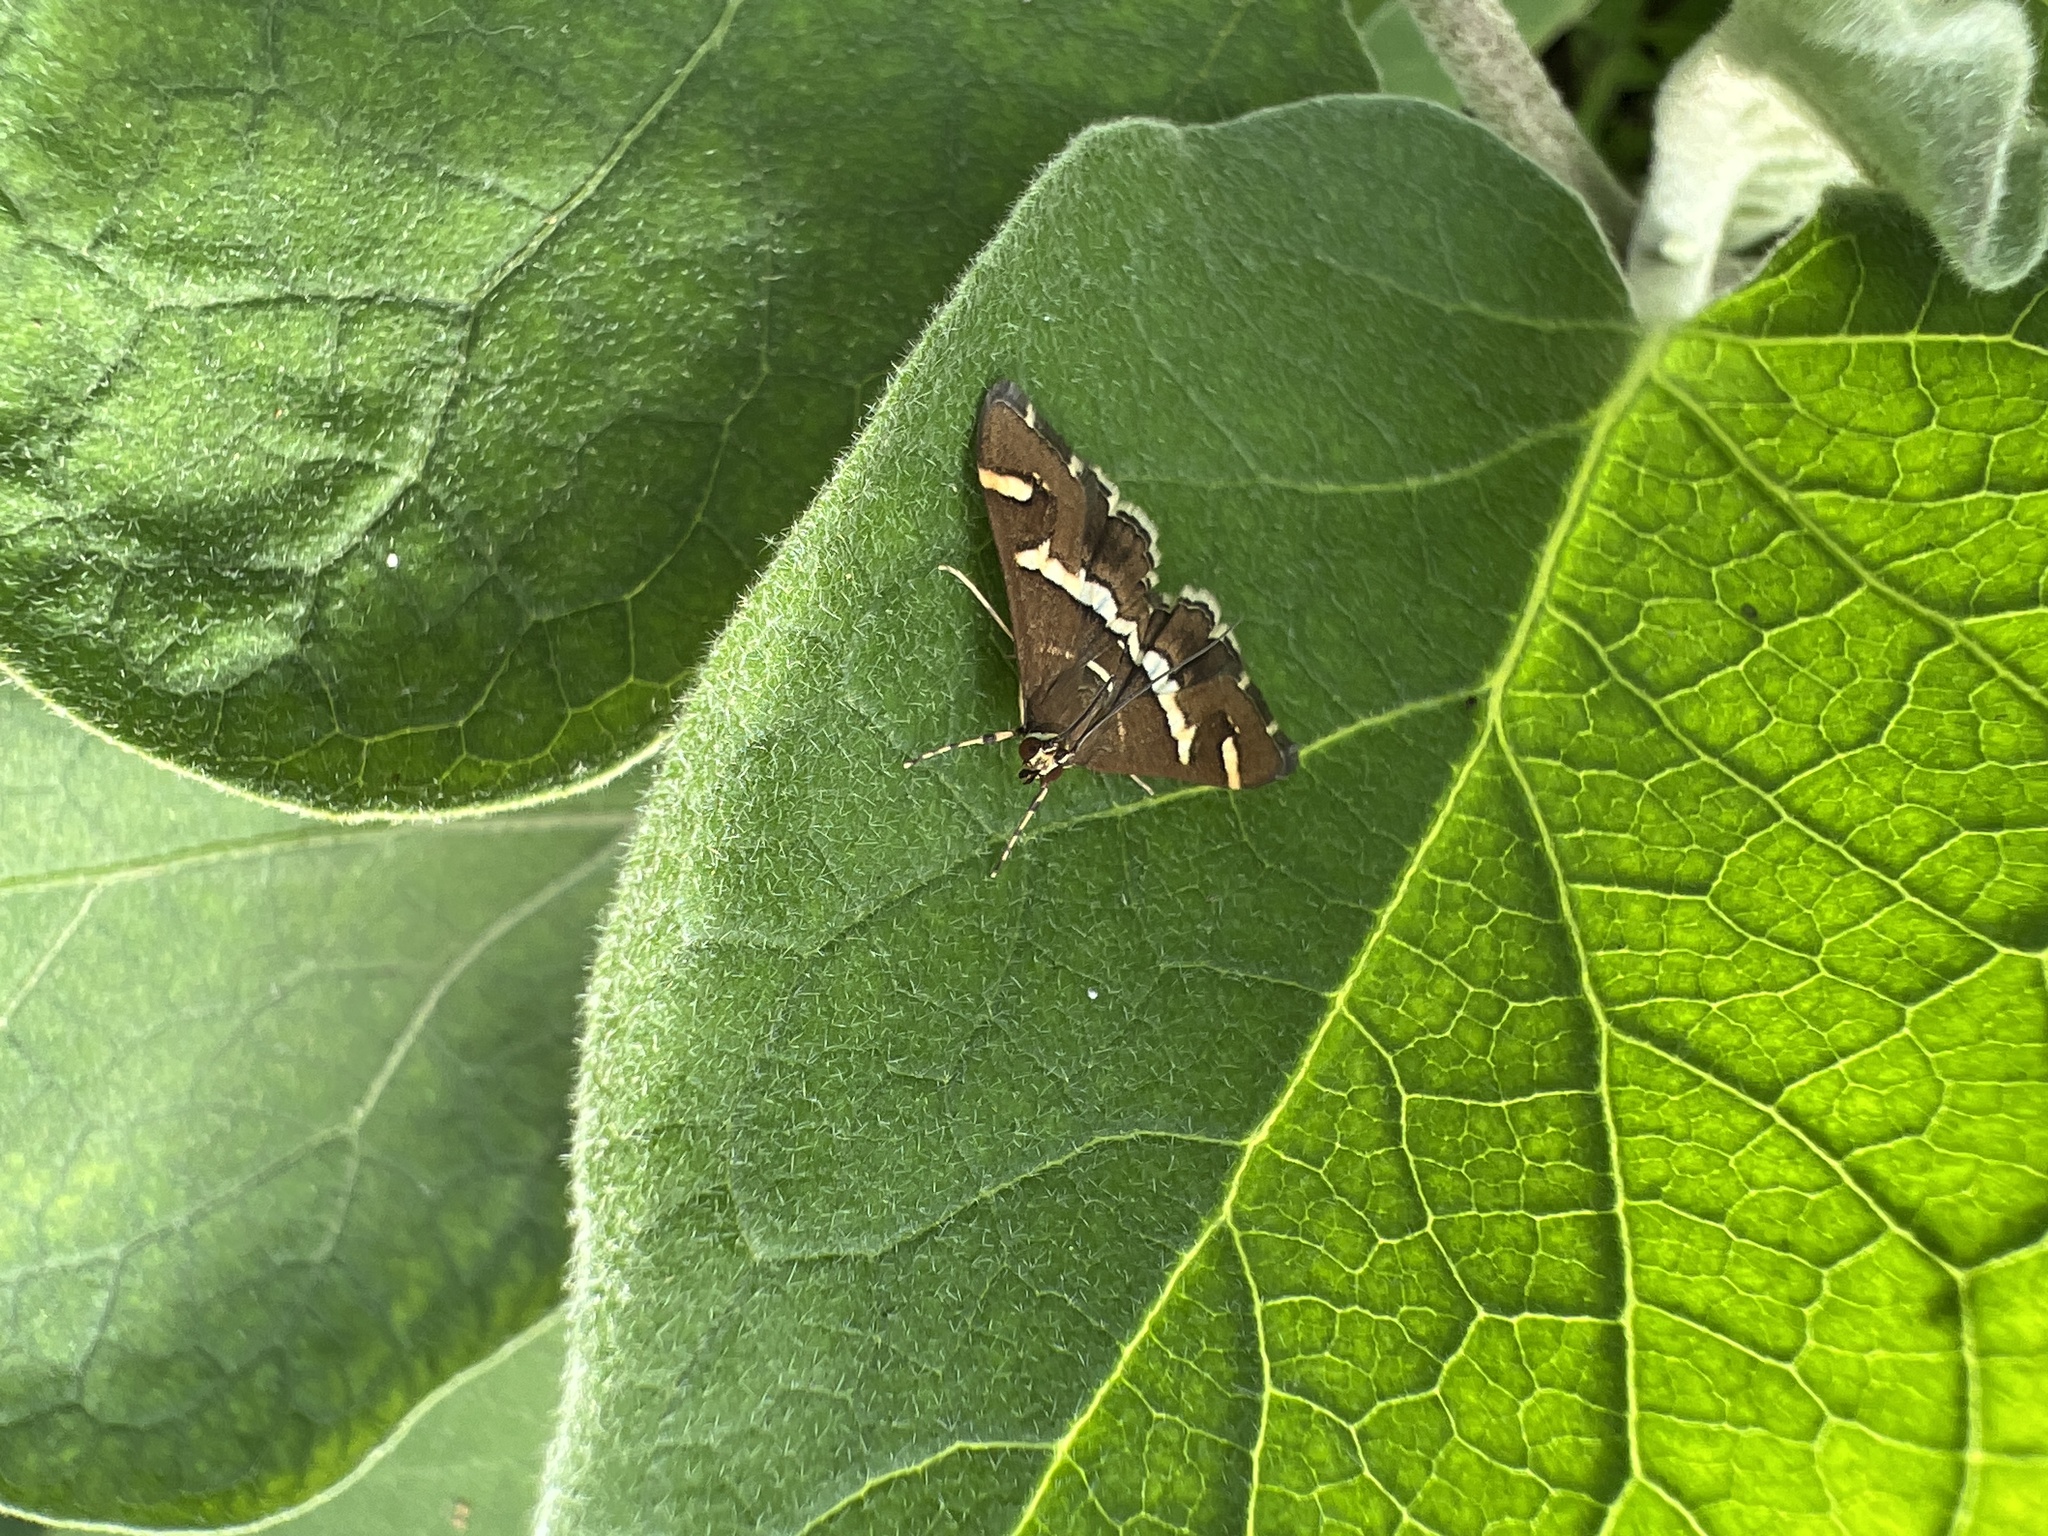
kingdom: Animalia
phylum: Arthropoda
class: Insecta
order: Lepidoptera
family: Crambidae
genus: Spoladea
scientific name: Spoladea recurvalis
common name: Beet webworm moth
